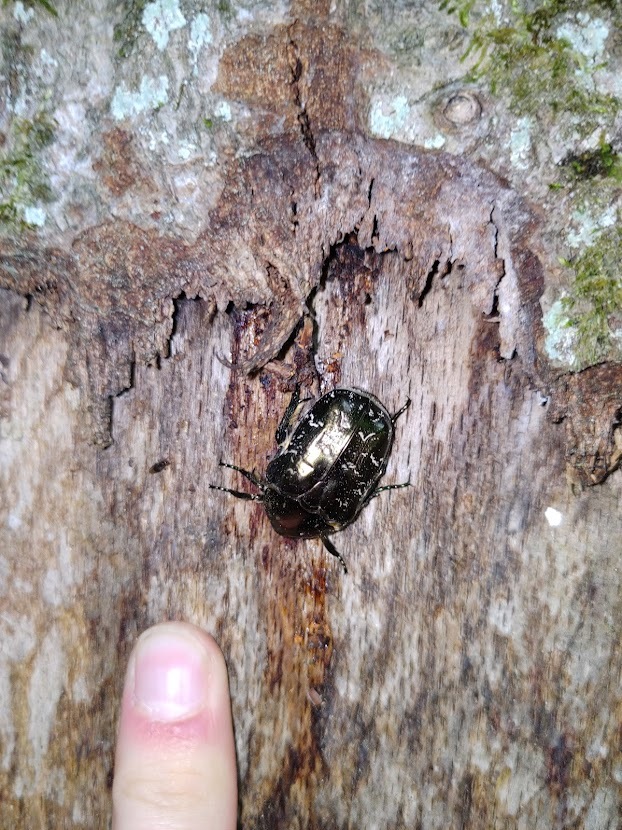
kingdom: Animalia
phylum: Arthropoda
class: Insecta
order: Coleoptera
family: Scarabaeidae
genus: Protaetia
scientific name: Protaetia marmorata
